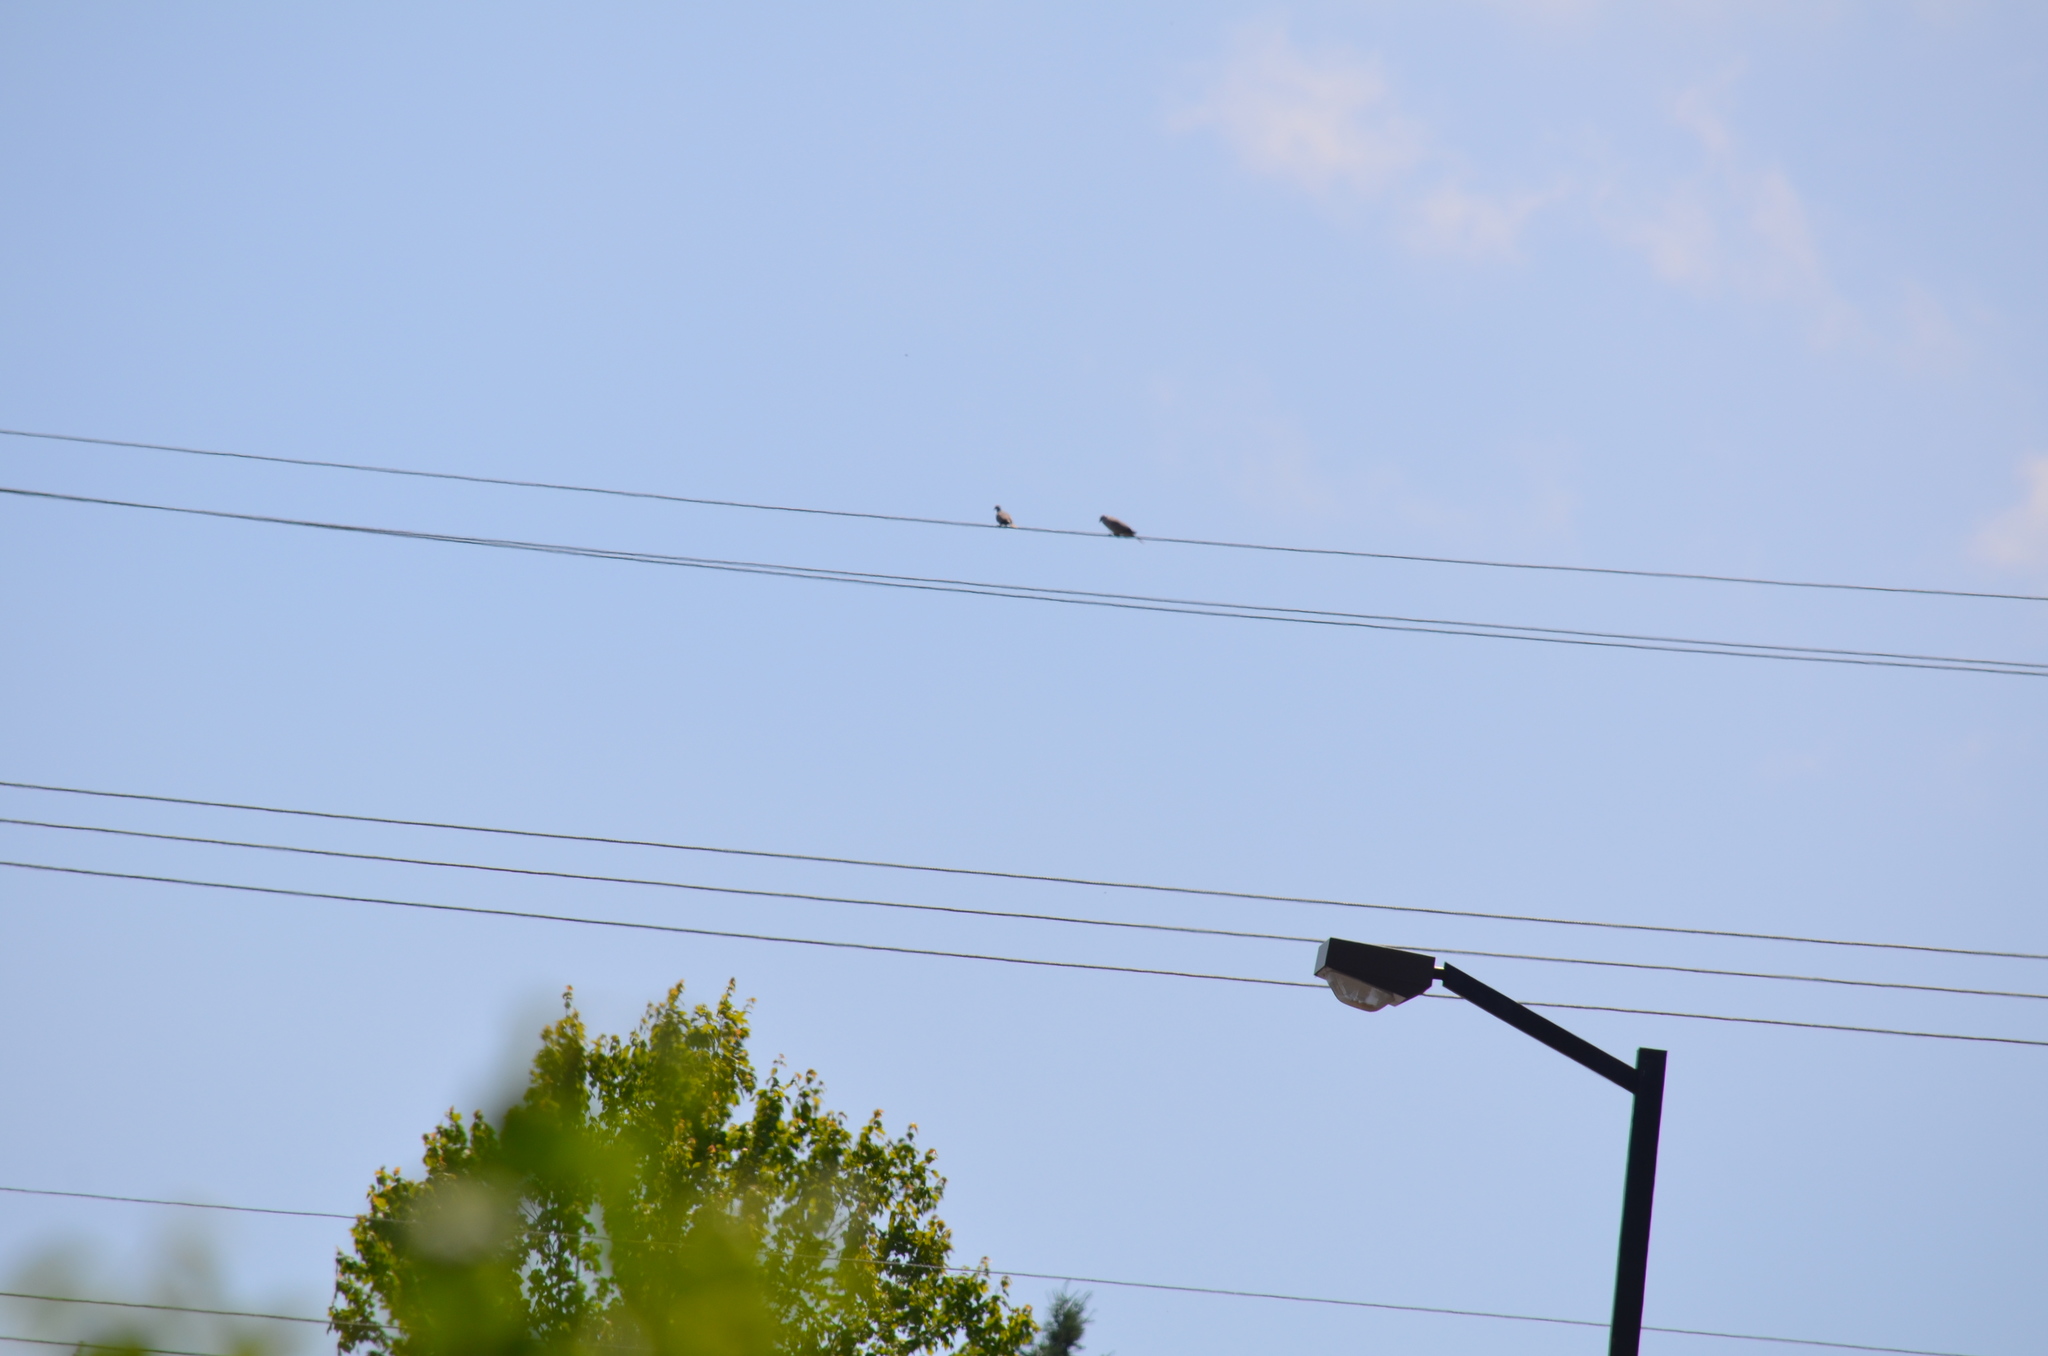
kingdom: Animalia
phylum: Chordata
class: Aves
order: Columbiformes
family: Columbidae
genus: Streptopelia
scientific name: Streptopelia decaocto
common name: Eurasian collared dove
